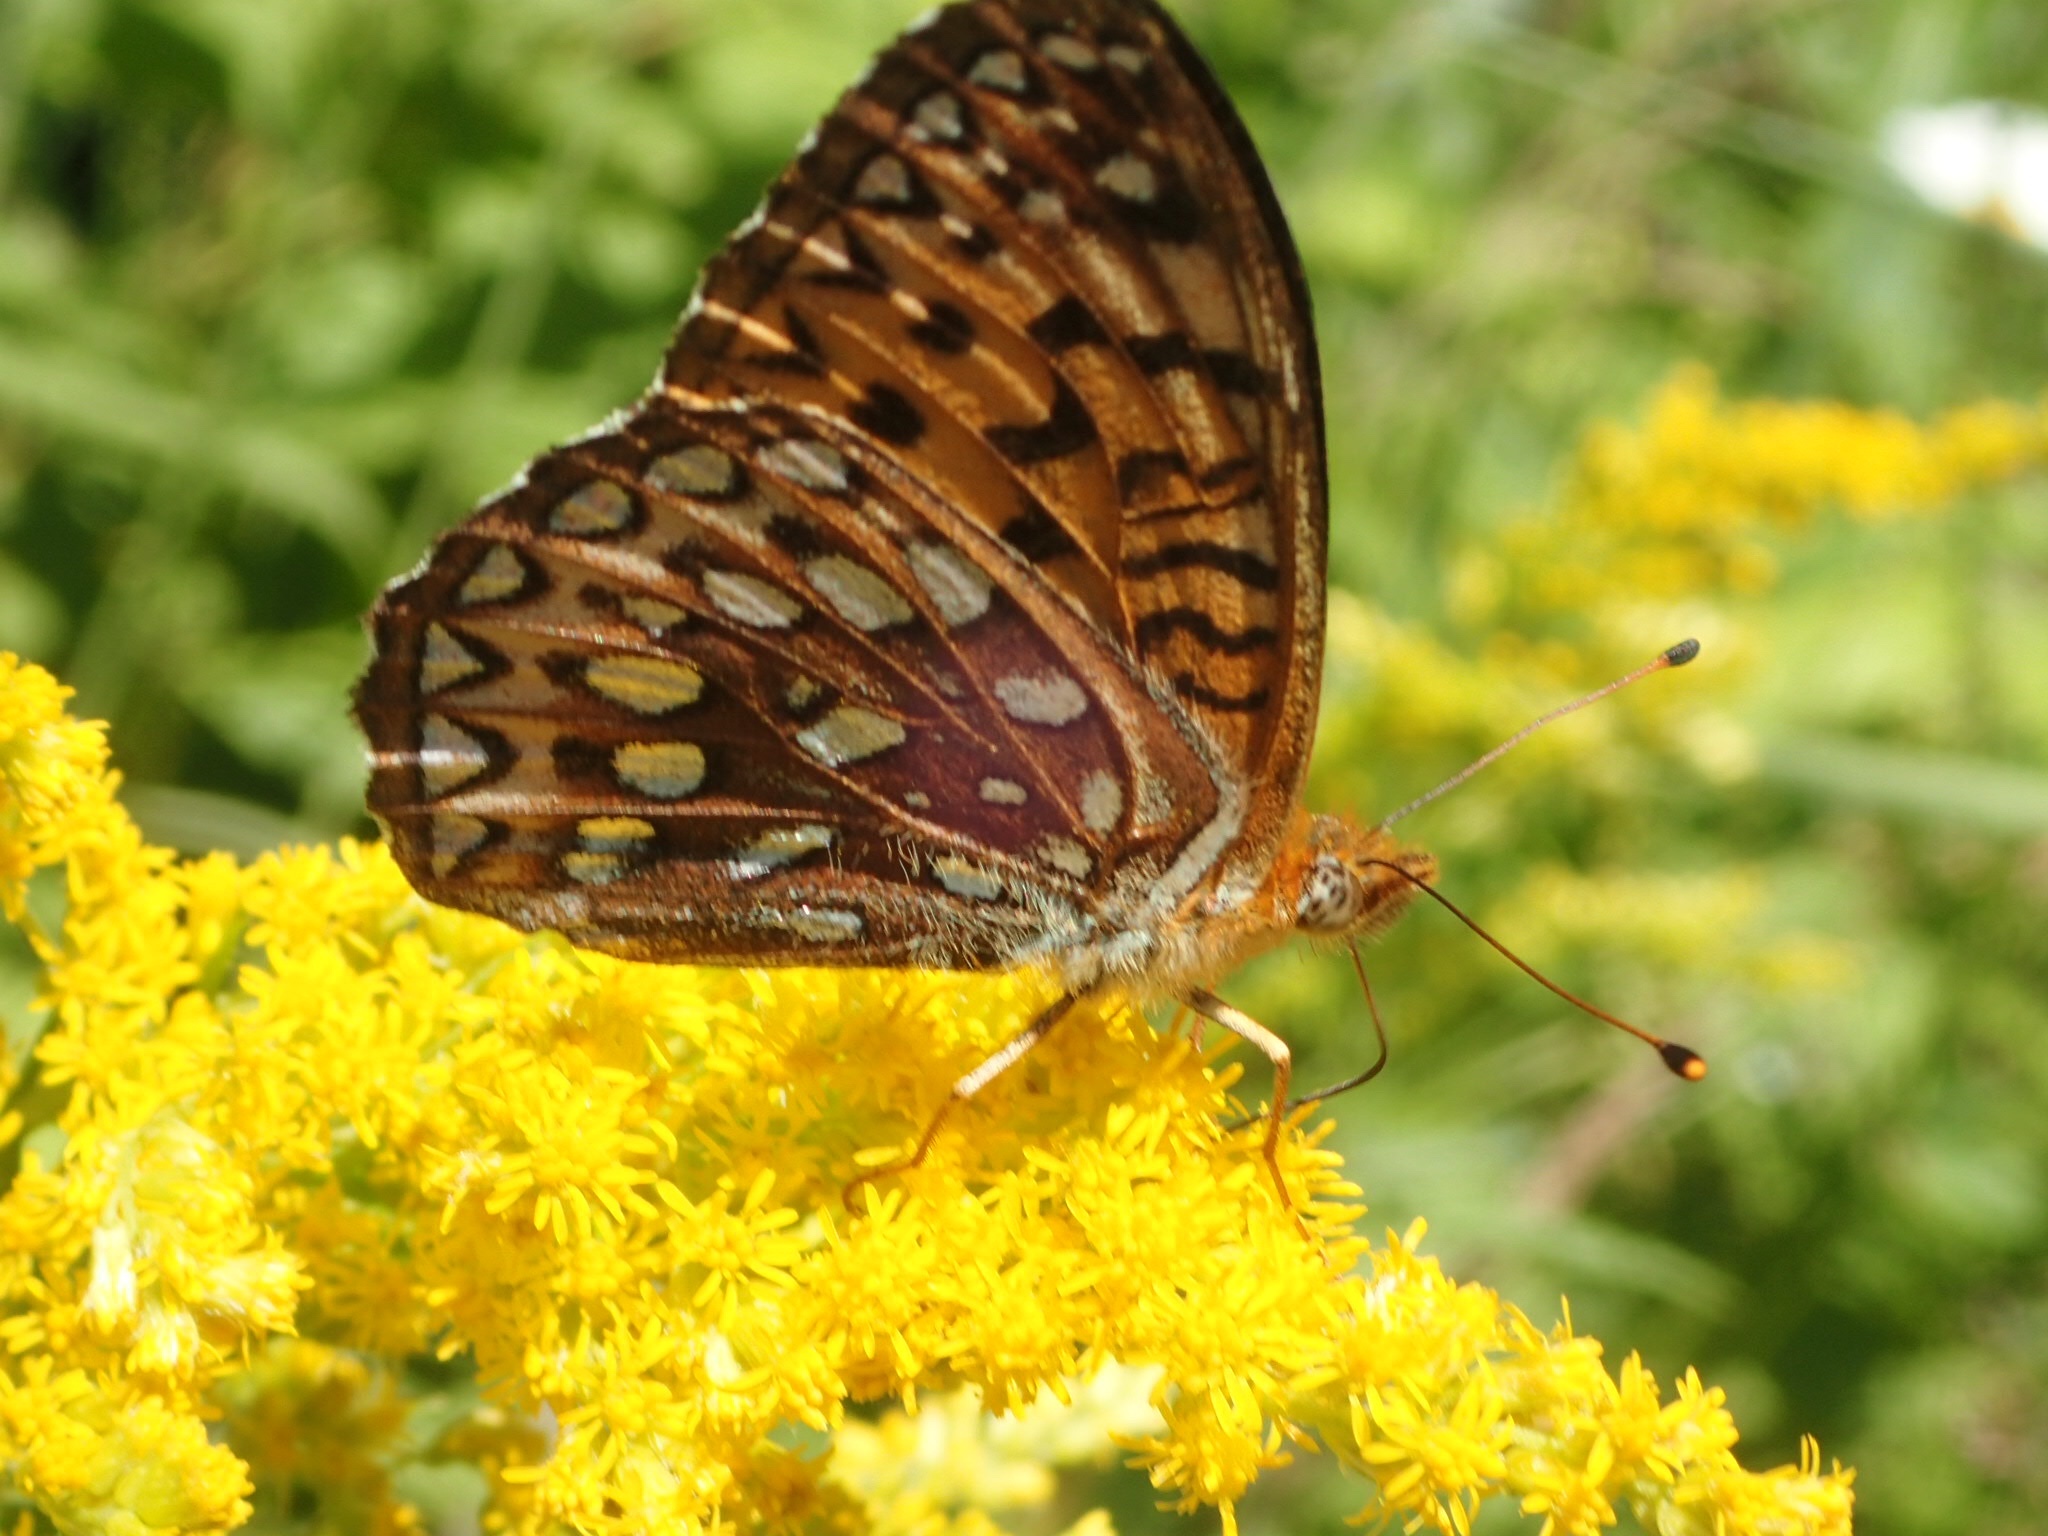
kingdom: Animalia
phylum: Arthropoda
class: Insecta
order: Lepidoptera
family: Nymphalidae
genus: Speyeria
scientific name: Speyeria atlantis
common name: Atlantis fritillary
